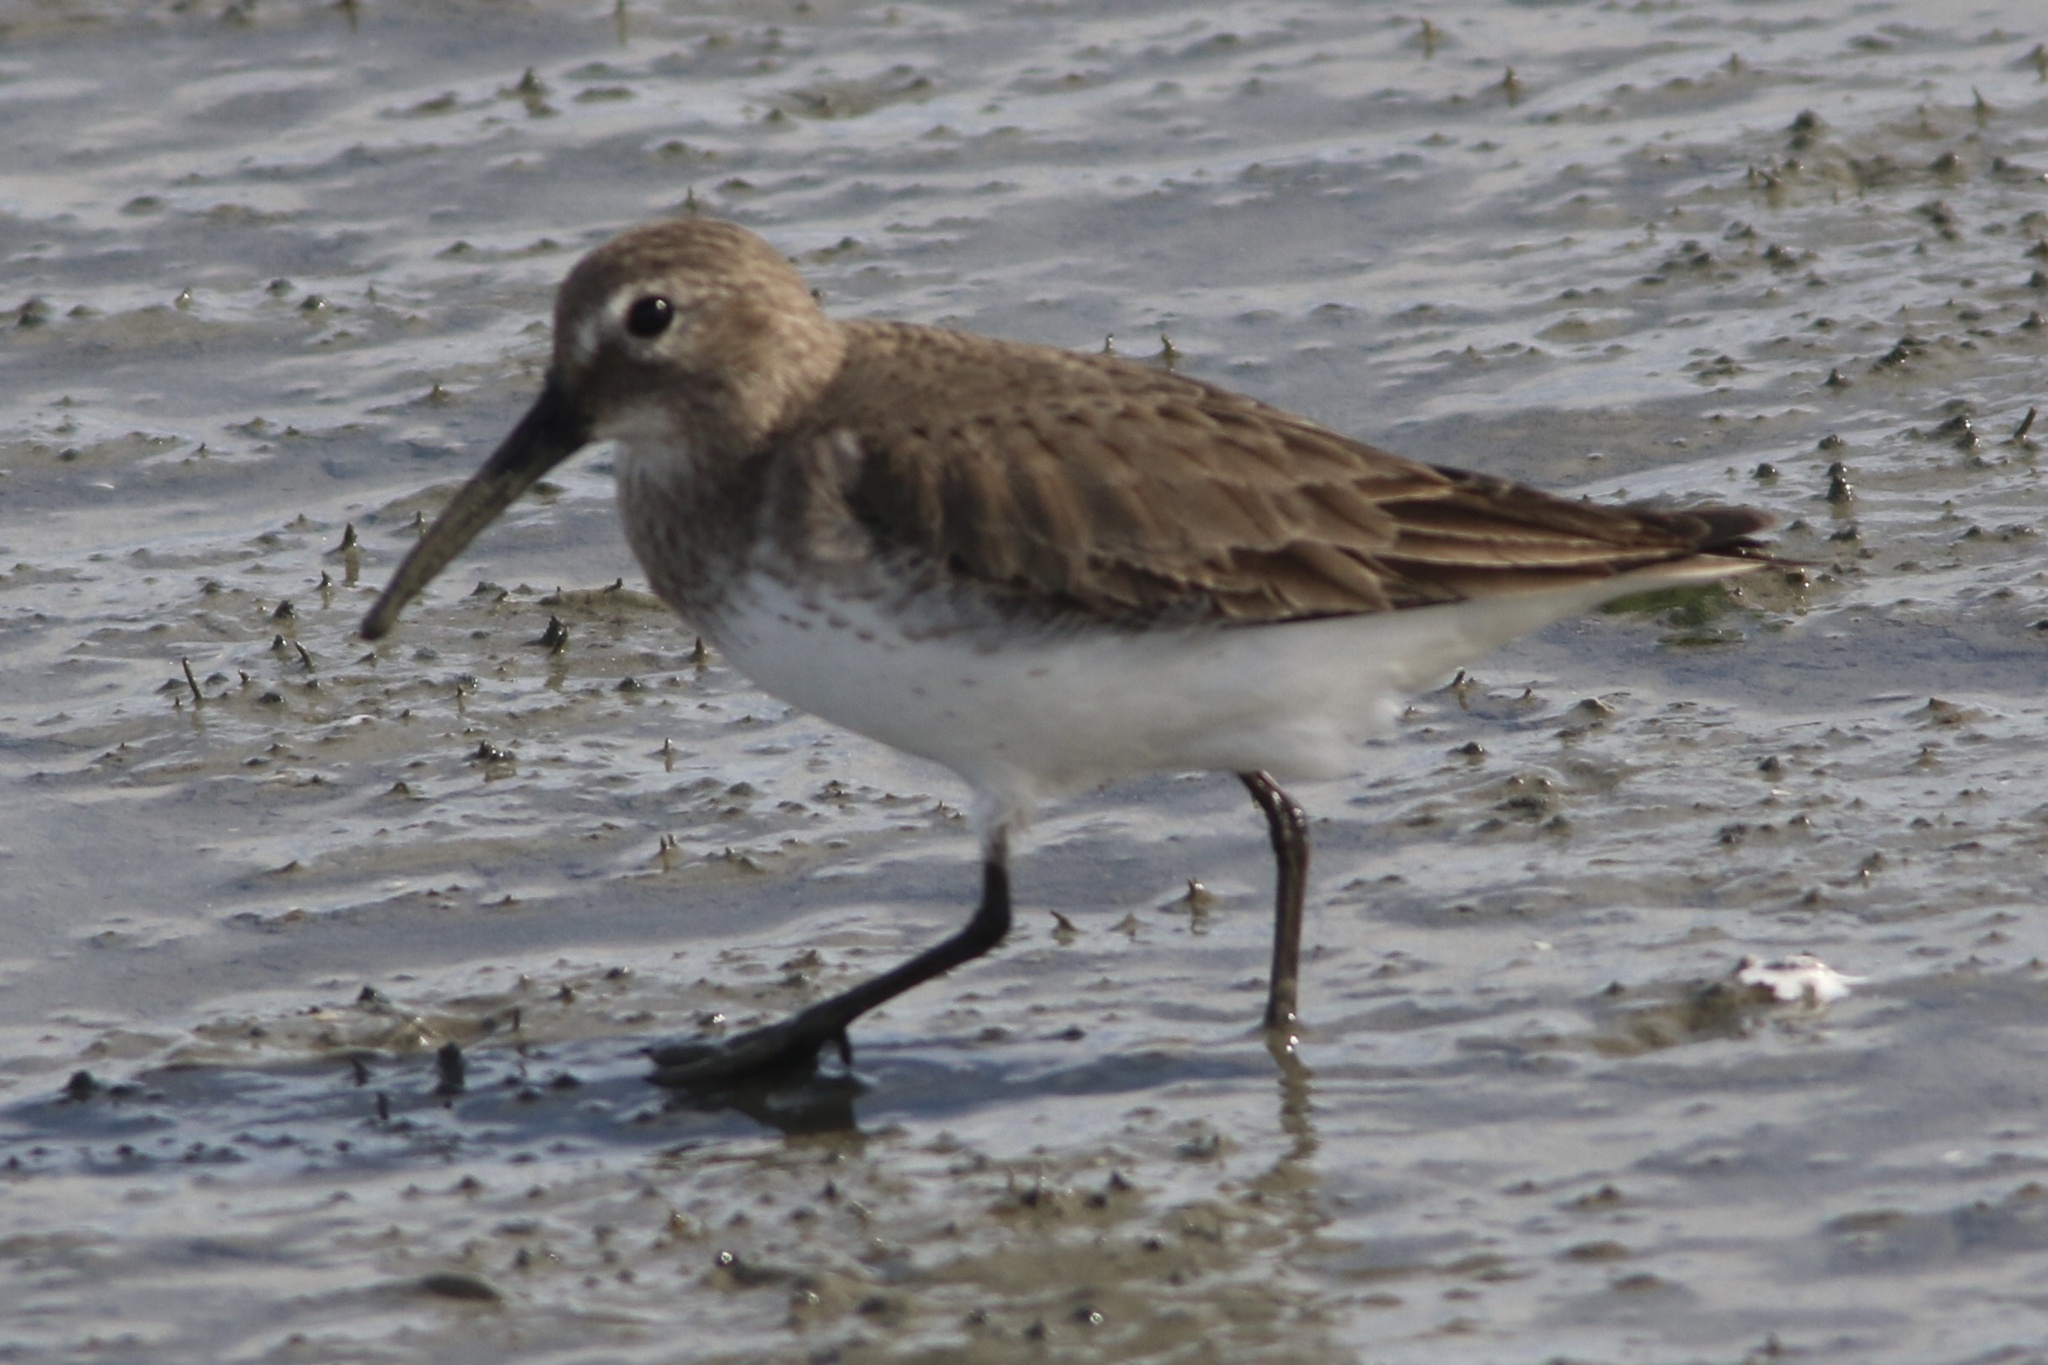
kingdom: Animalia
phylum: Chordata
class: Aves
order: Charadriiformes
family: Scolopacidae
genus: Calidris
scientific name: Calidris alpina
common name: Dunlin
